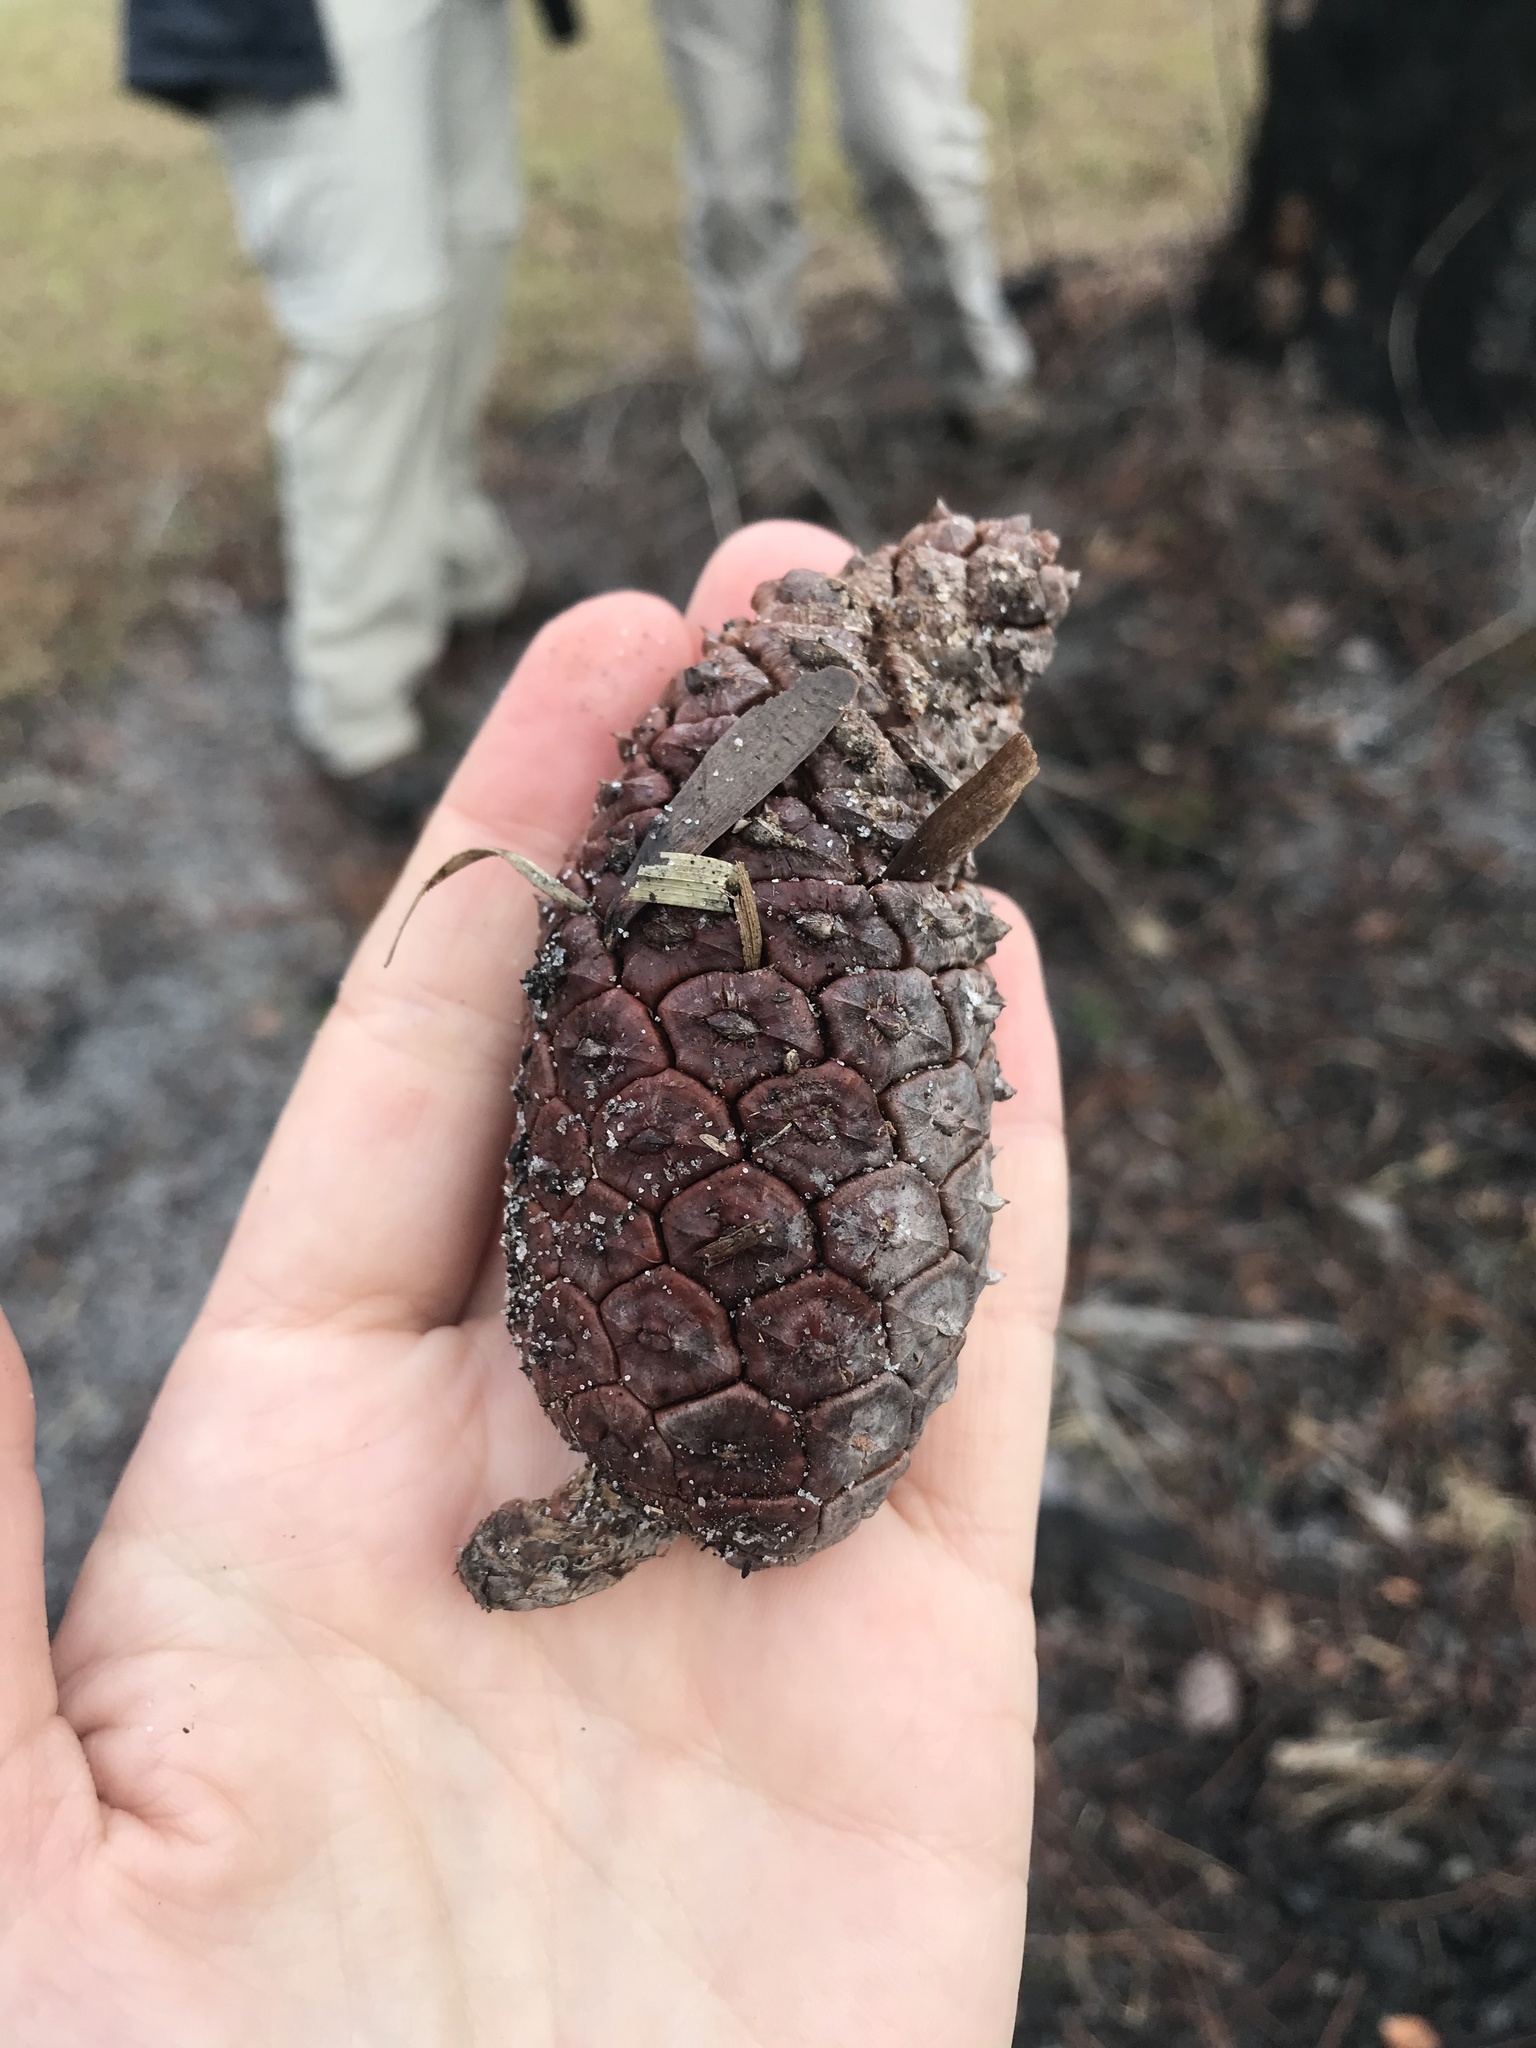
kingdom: Plantae
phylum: Tracheophyta
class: Pinopsida
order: Pinales
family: Pinaceae
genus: Pinus
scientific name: Pinus elliottii
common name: Slash pine
